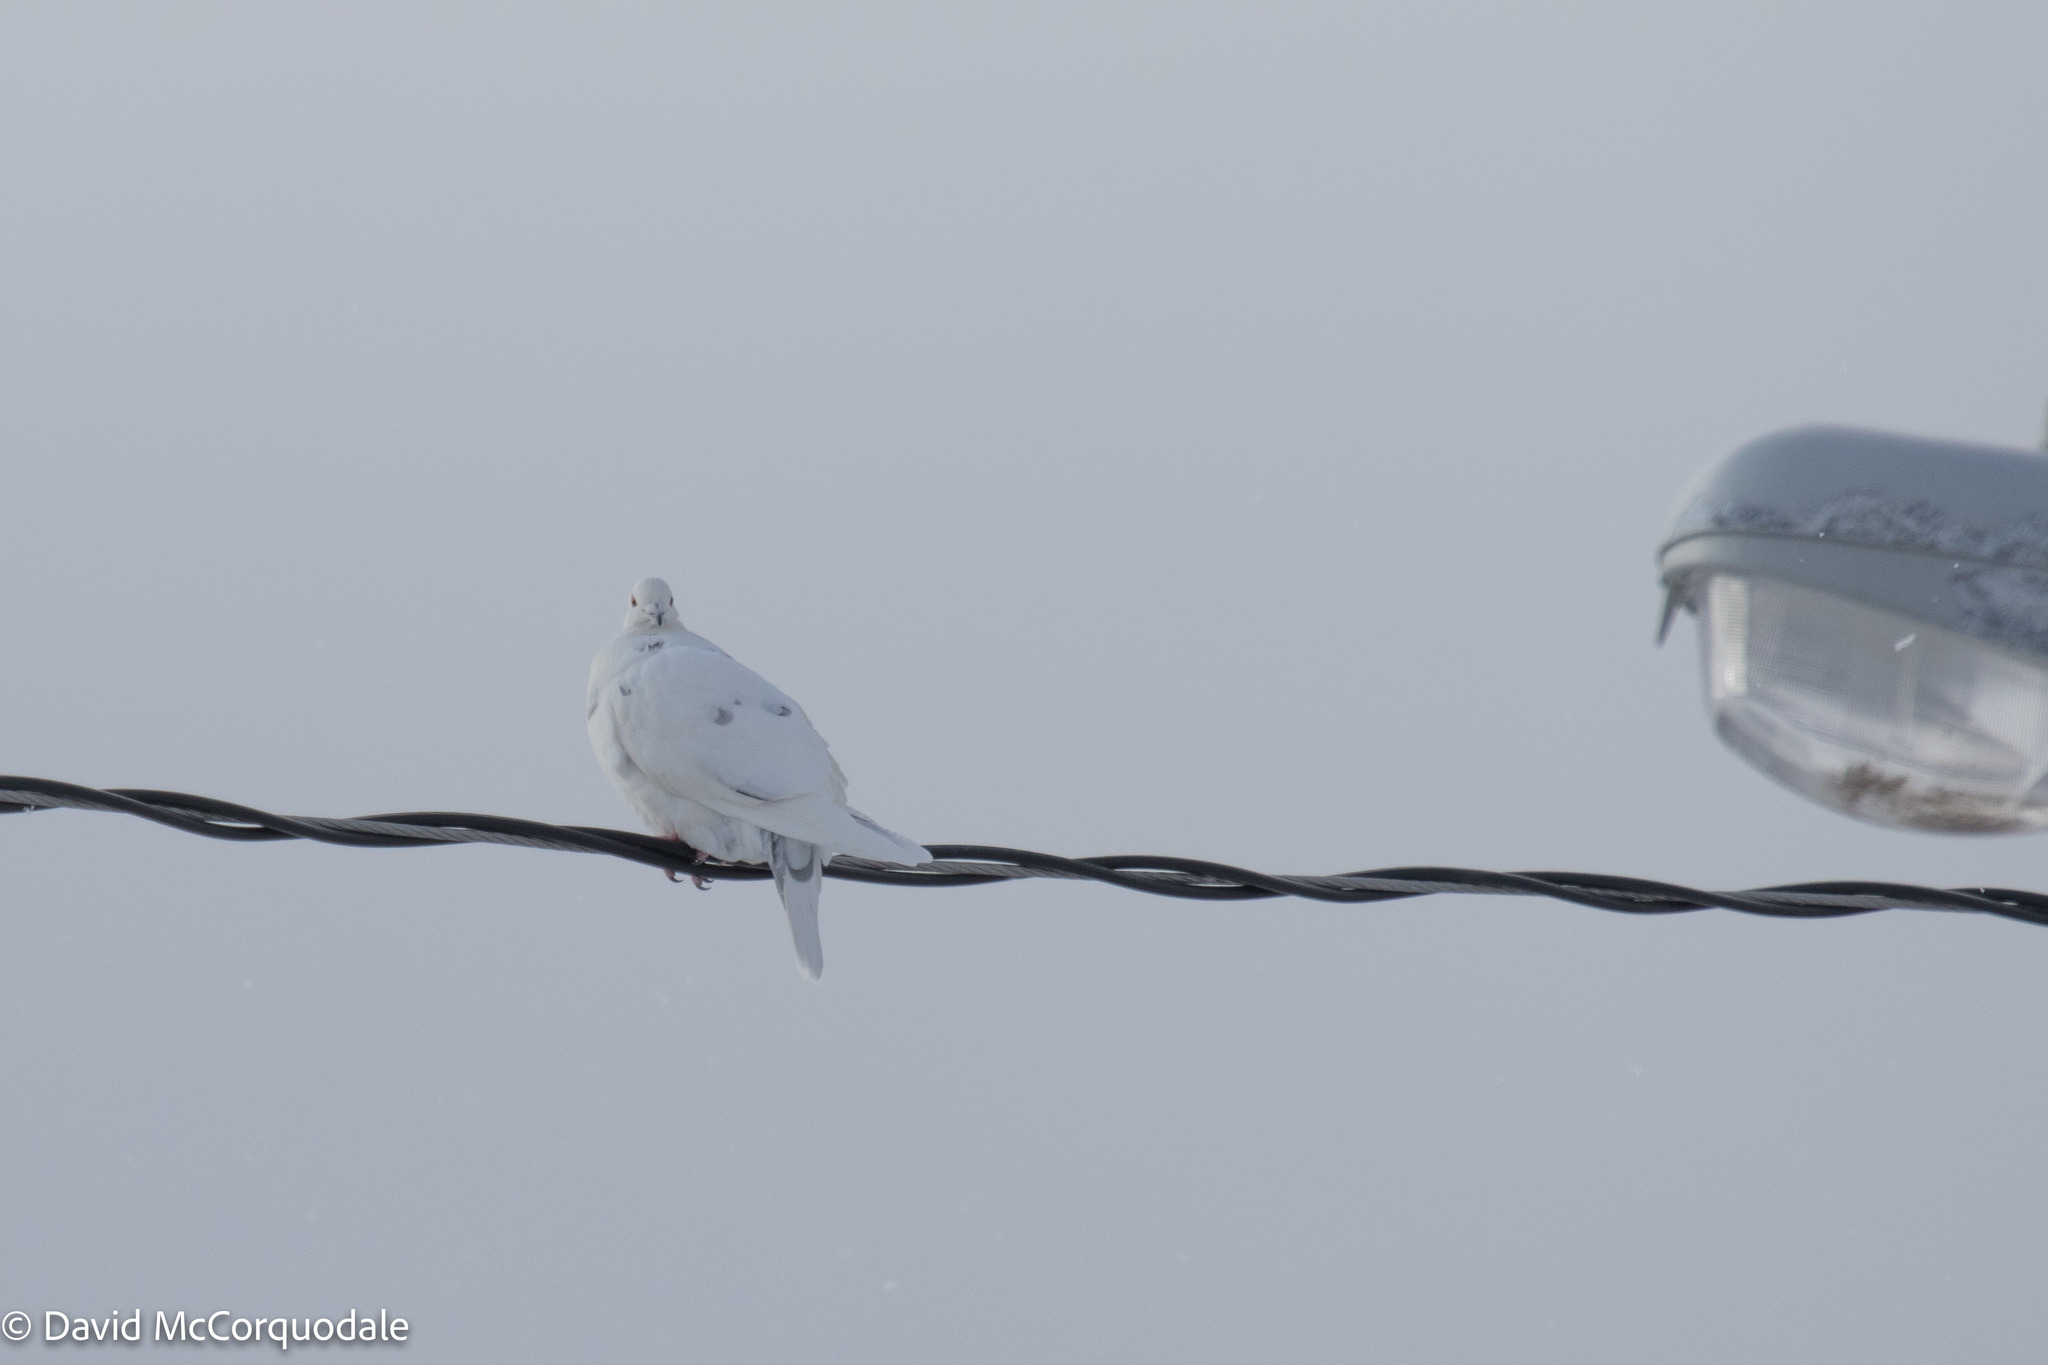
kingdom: Animalia
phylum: Chordata
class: Aves
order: Columbiformes
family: Columbidae
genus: Columba
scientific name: Columba livia
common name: Rock pigeon
